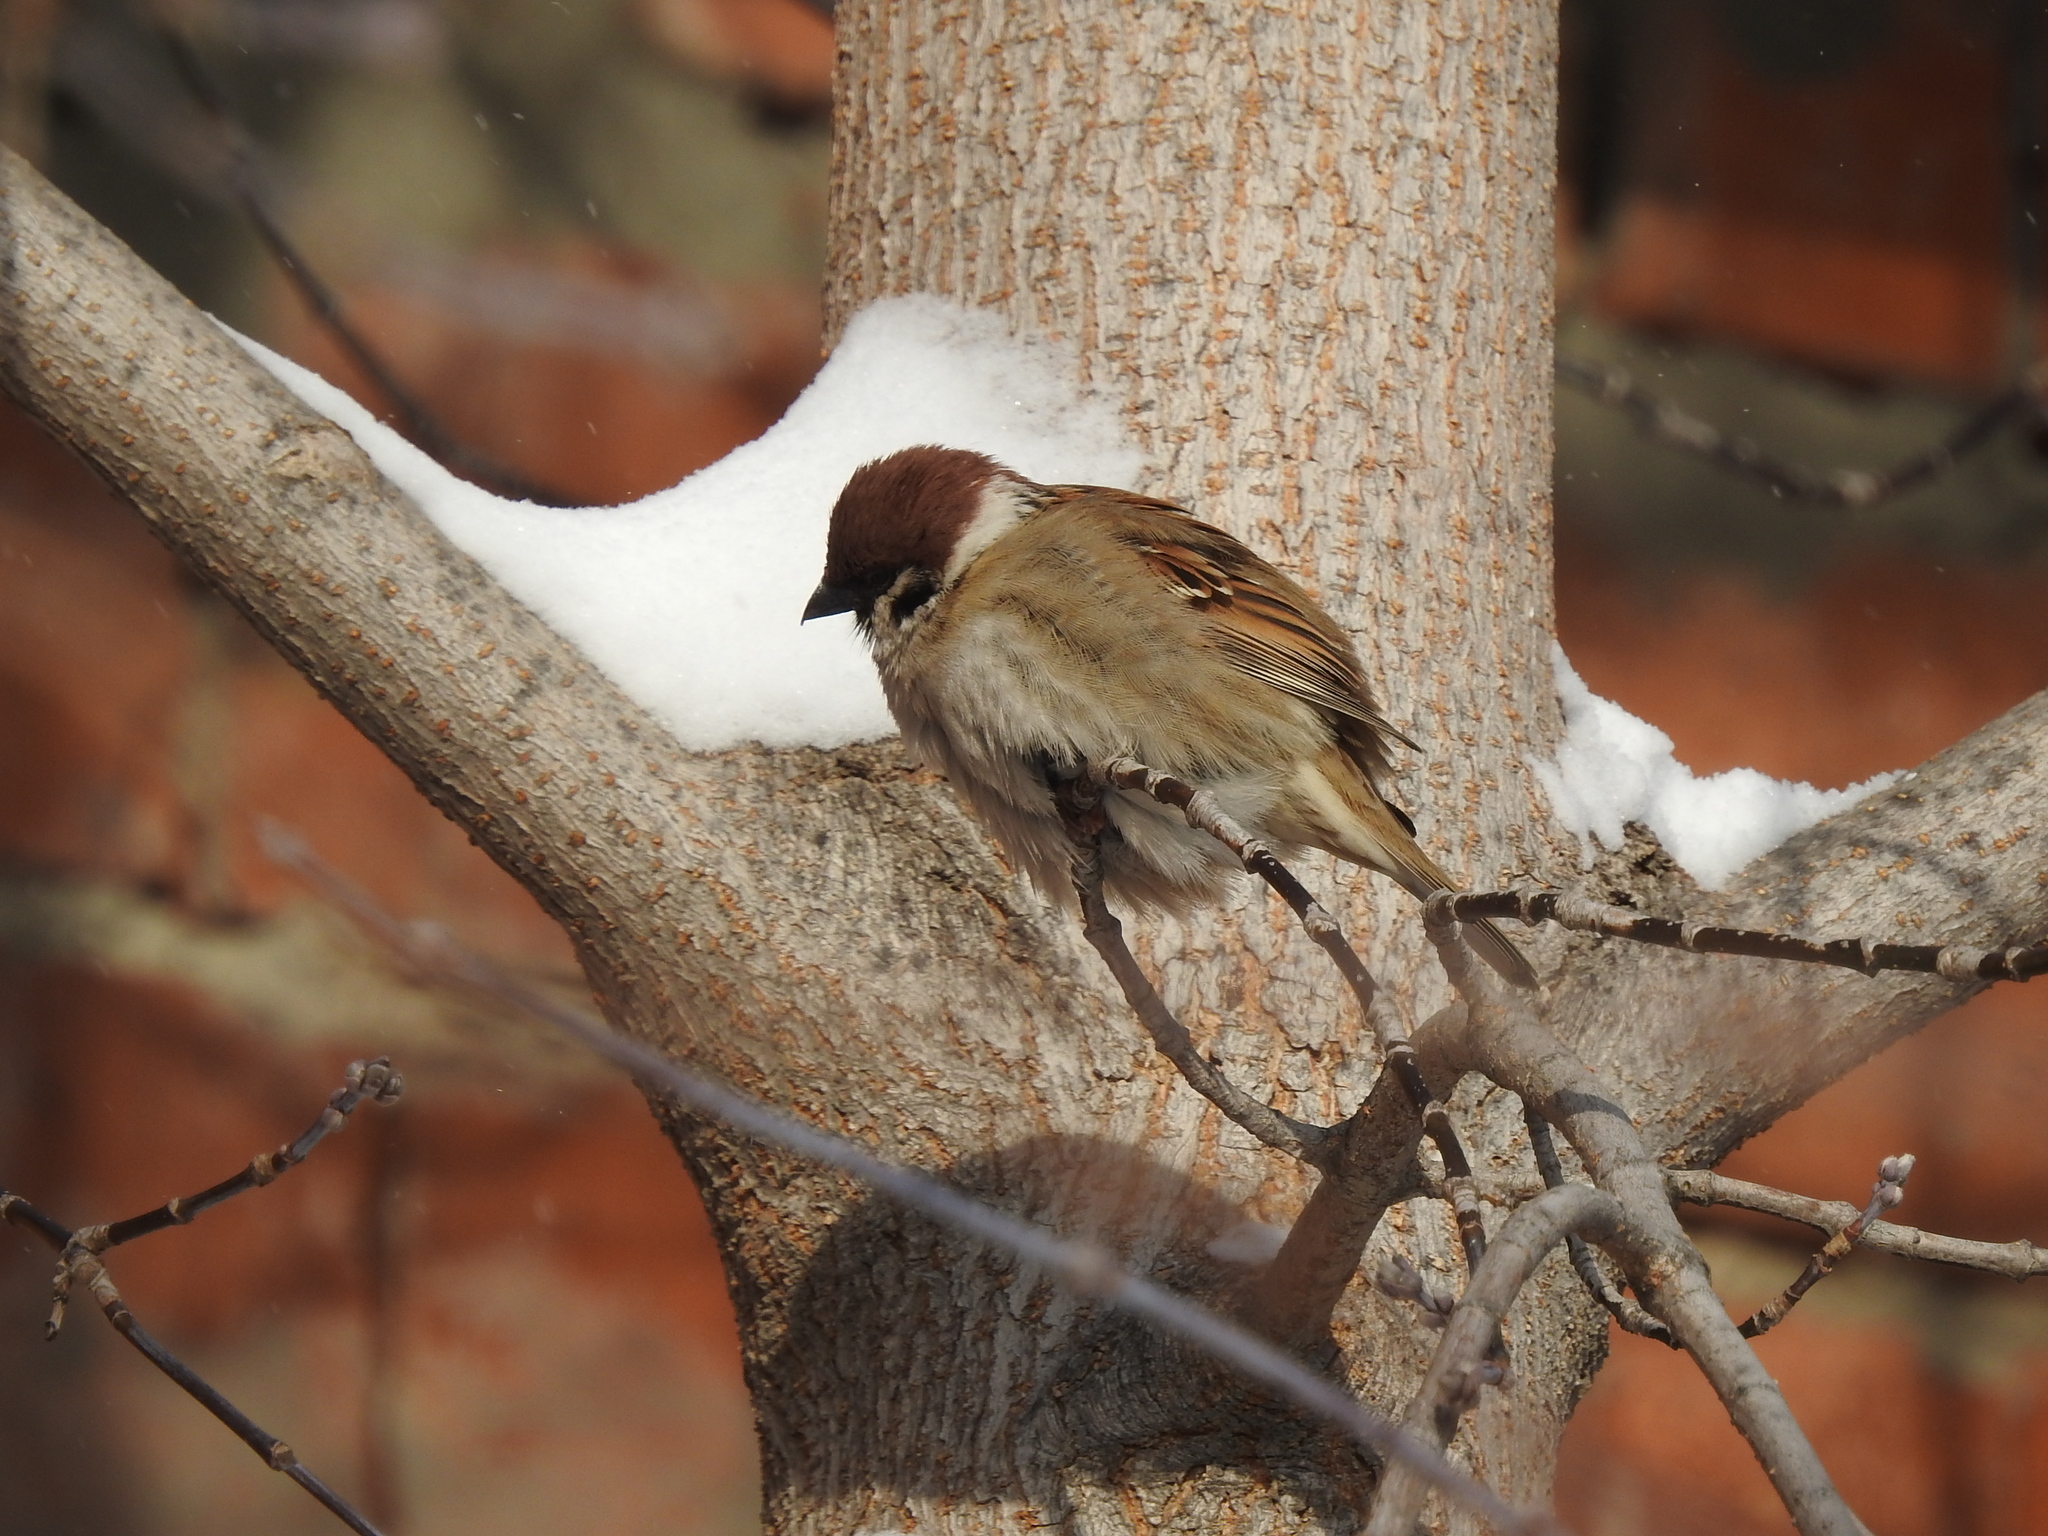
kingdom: Animalia
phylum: Chordata
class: Aves
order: Passeriformes
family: Passeridae
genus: Passer
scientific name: Passer montanus
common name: Eurasian tree sparrow
